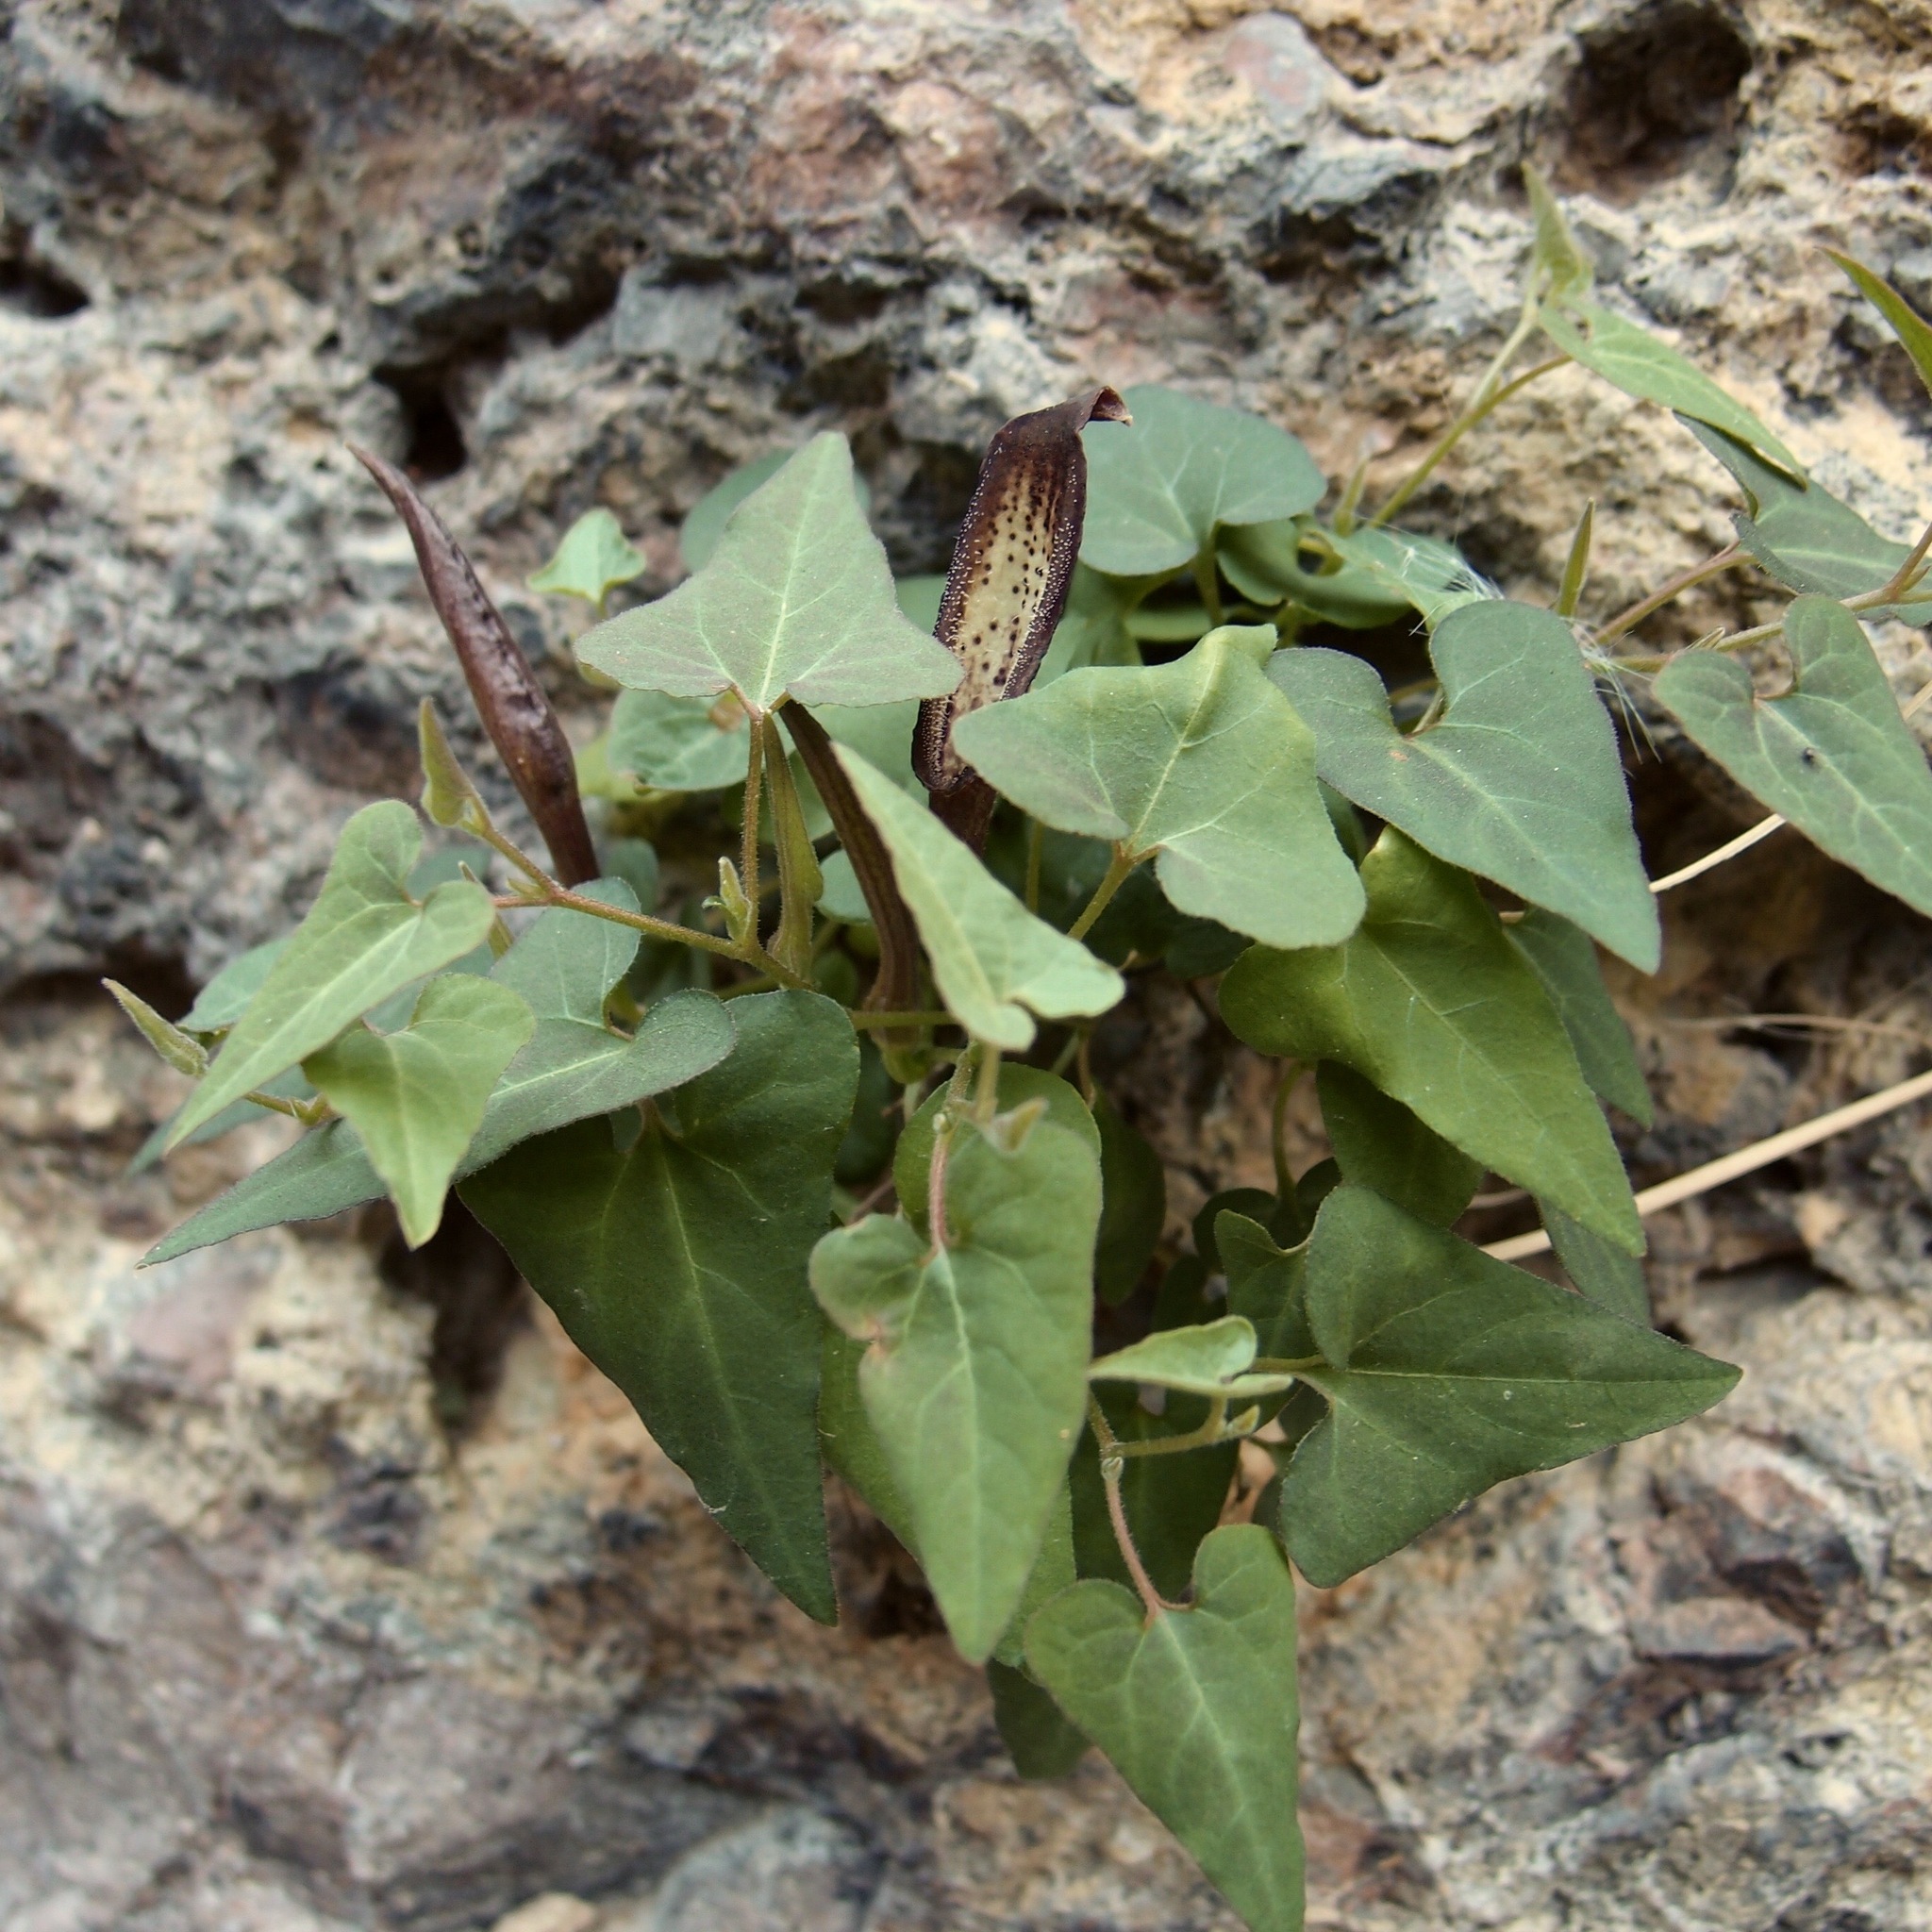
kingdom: Plantae
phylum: Tracheophyta
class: Magnoliopsida
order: Piperales
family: Aristolochiaceae
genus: Aristolochia
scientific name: Aristolochia watsonii
